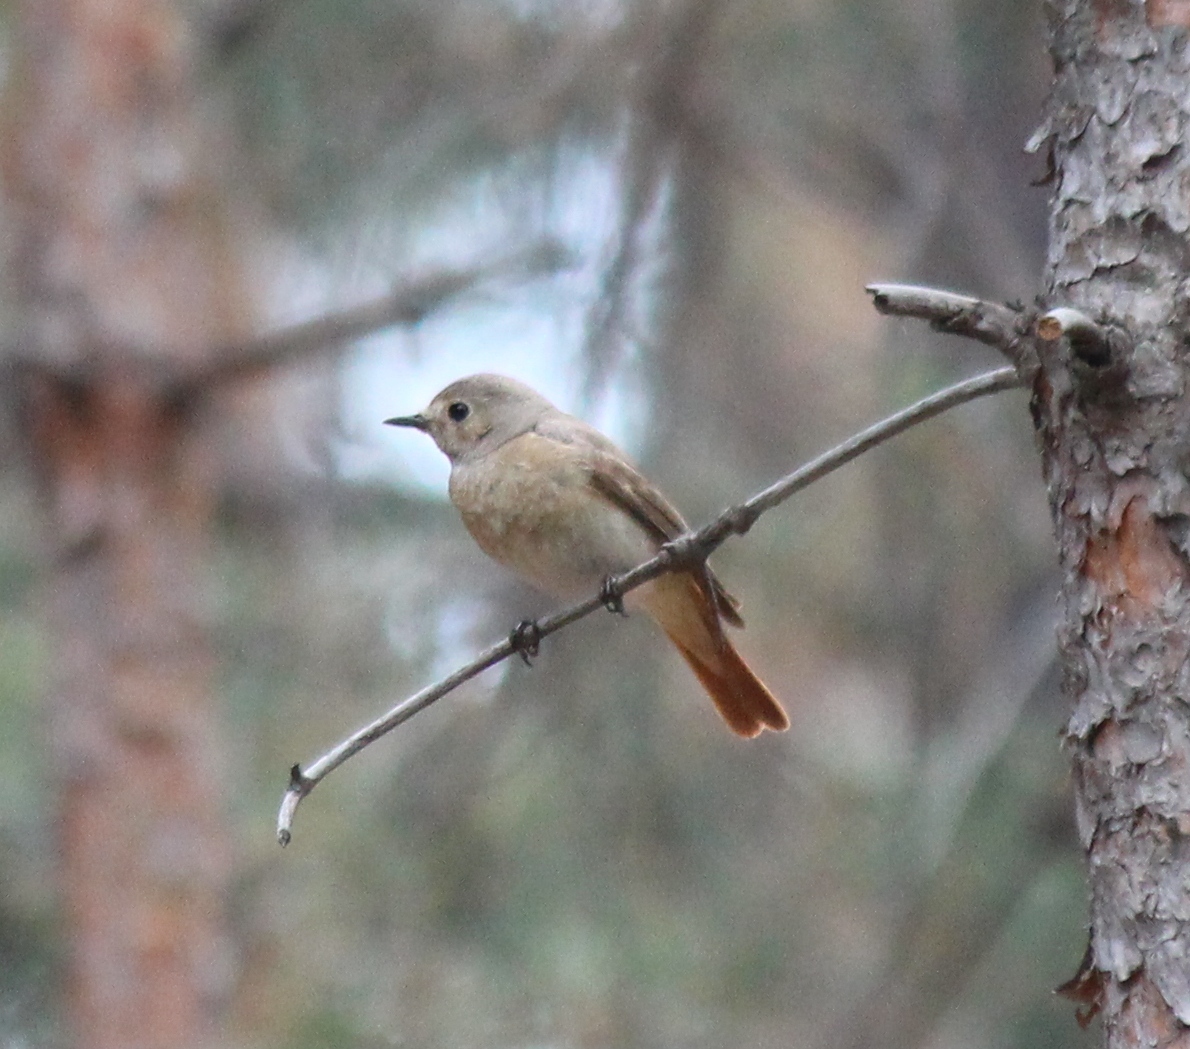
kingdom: Animalia
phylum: Chordata
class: Aves
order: Passeriformes
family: Muscicapidae
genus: Phoenicurus
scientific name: Phoenicurus phoenicurus
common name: Common redstart
